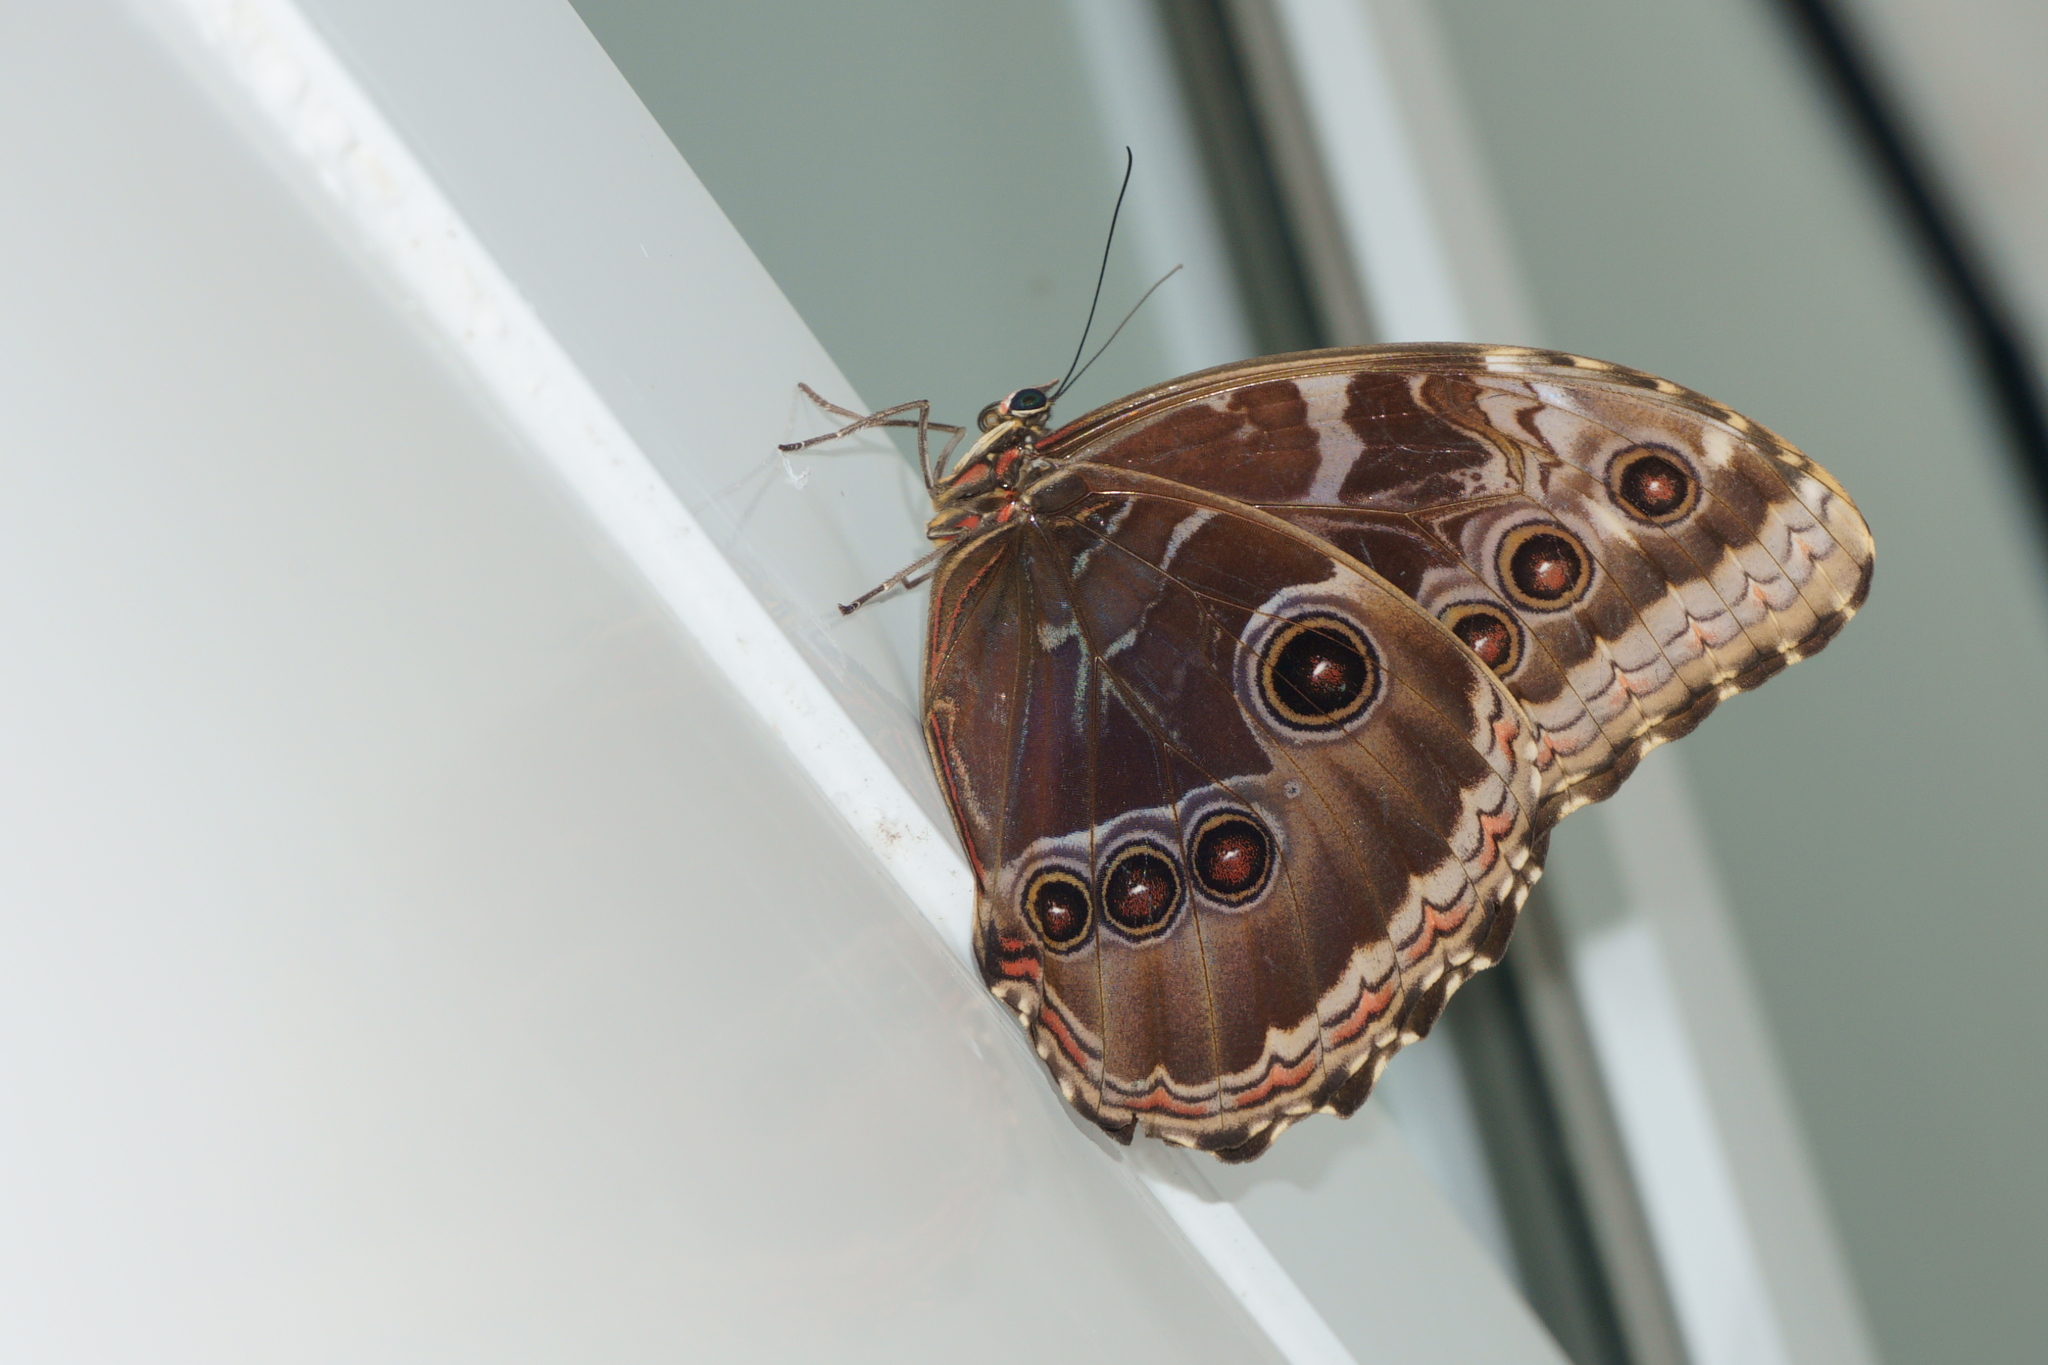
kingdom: Animalia
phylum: Arthropoda
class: Insecta
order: Lepidoptera
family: Nymphalidae
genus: Morpho
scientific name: Morpho helenor
